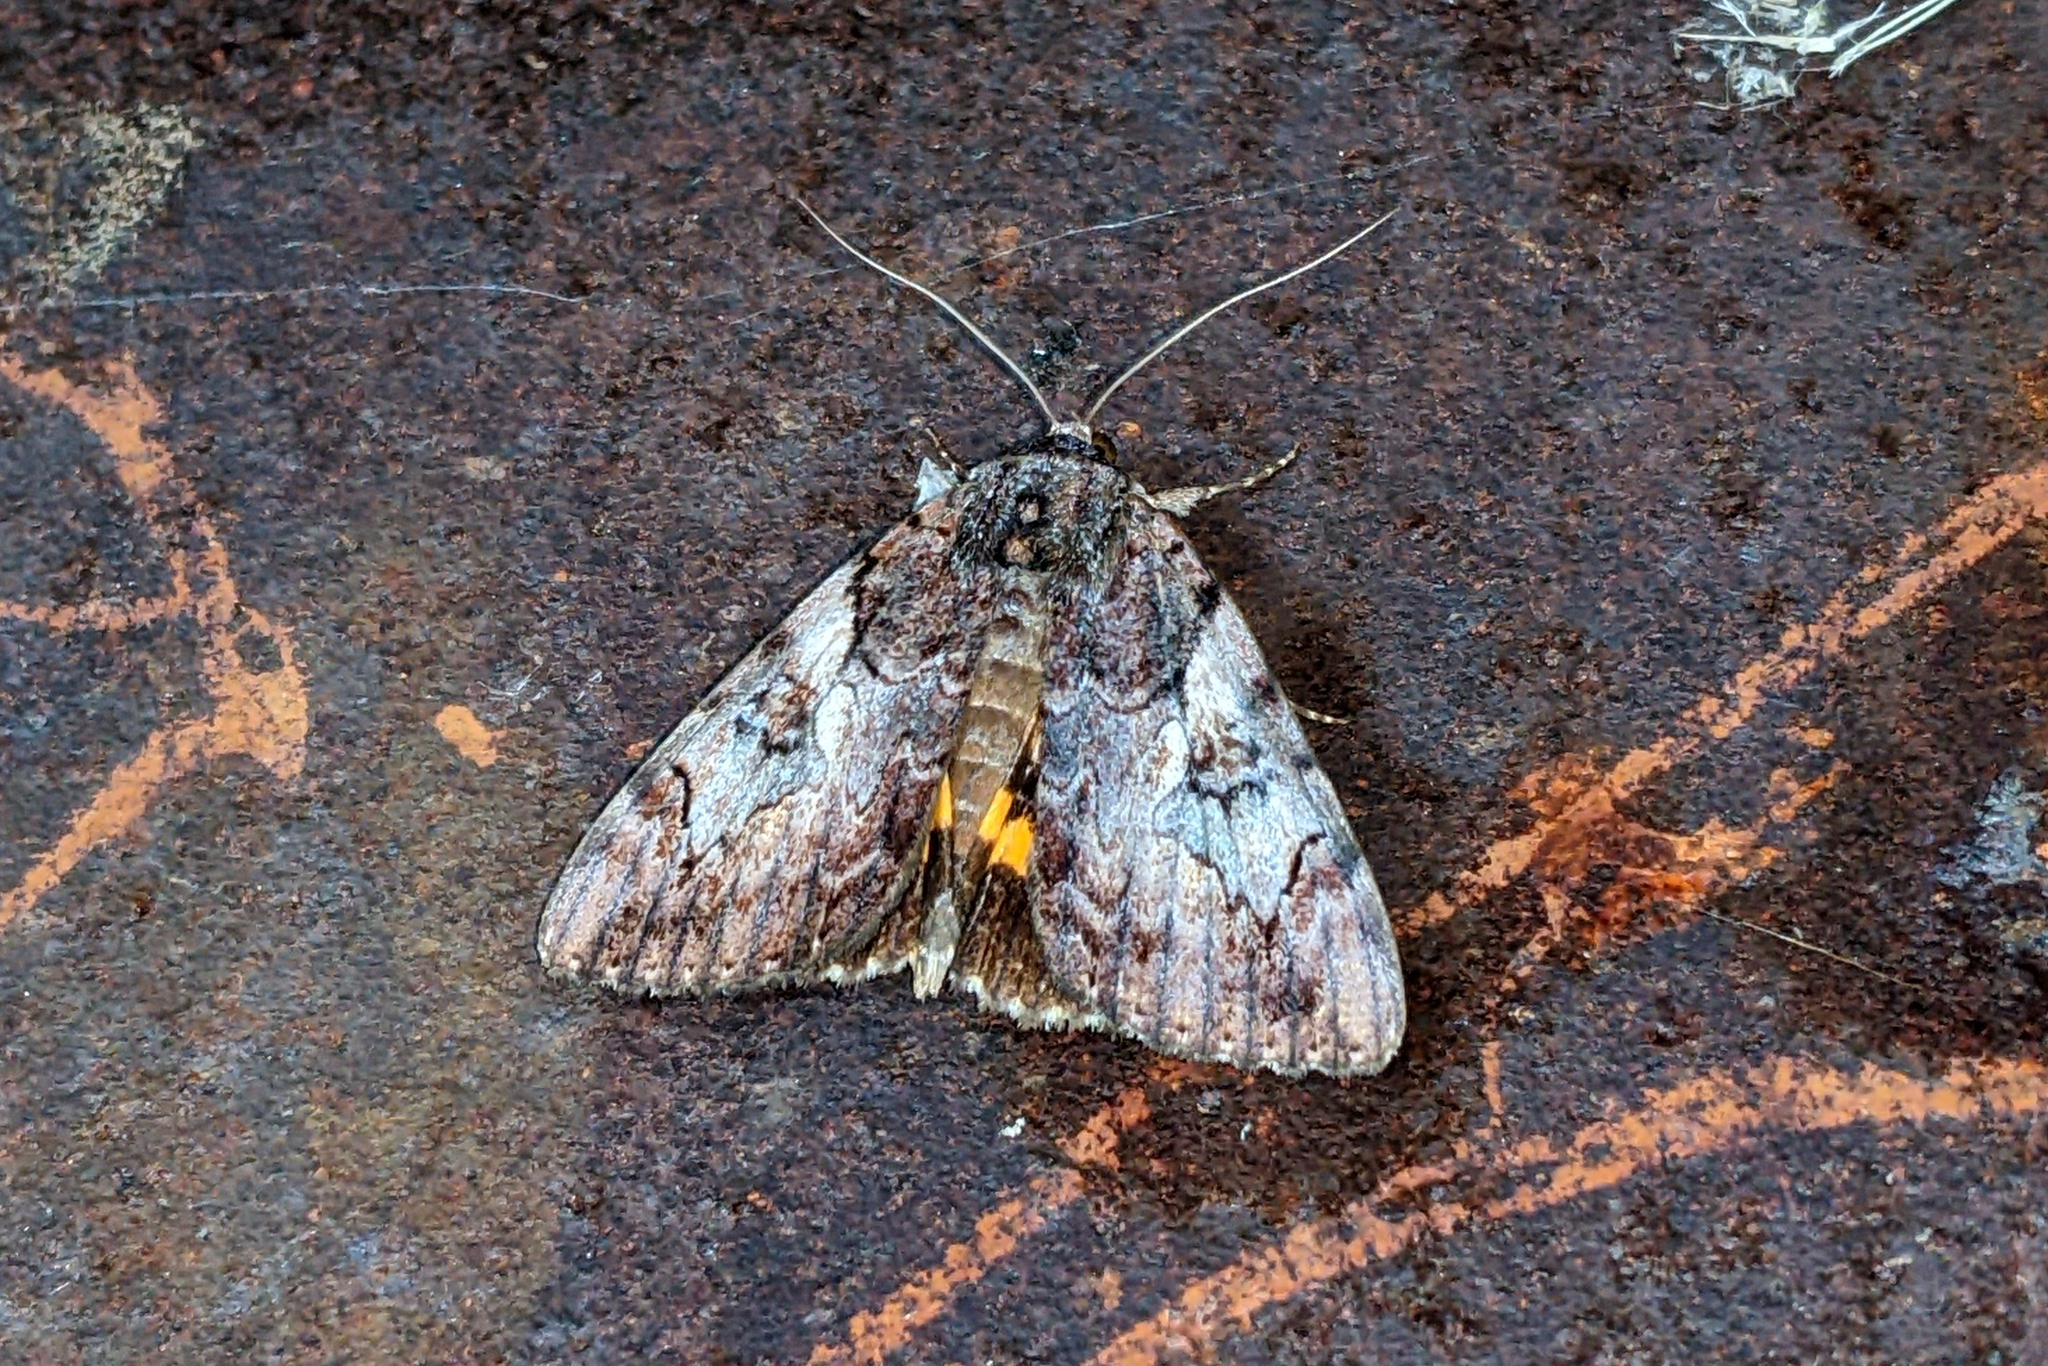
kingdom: Animalia
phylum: Arthropoda
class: Insecta
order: Lepidoptera
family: Erebidae
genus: Catocala
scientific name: Catocala muliercula
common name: The little wife underwing
